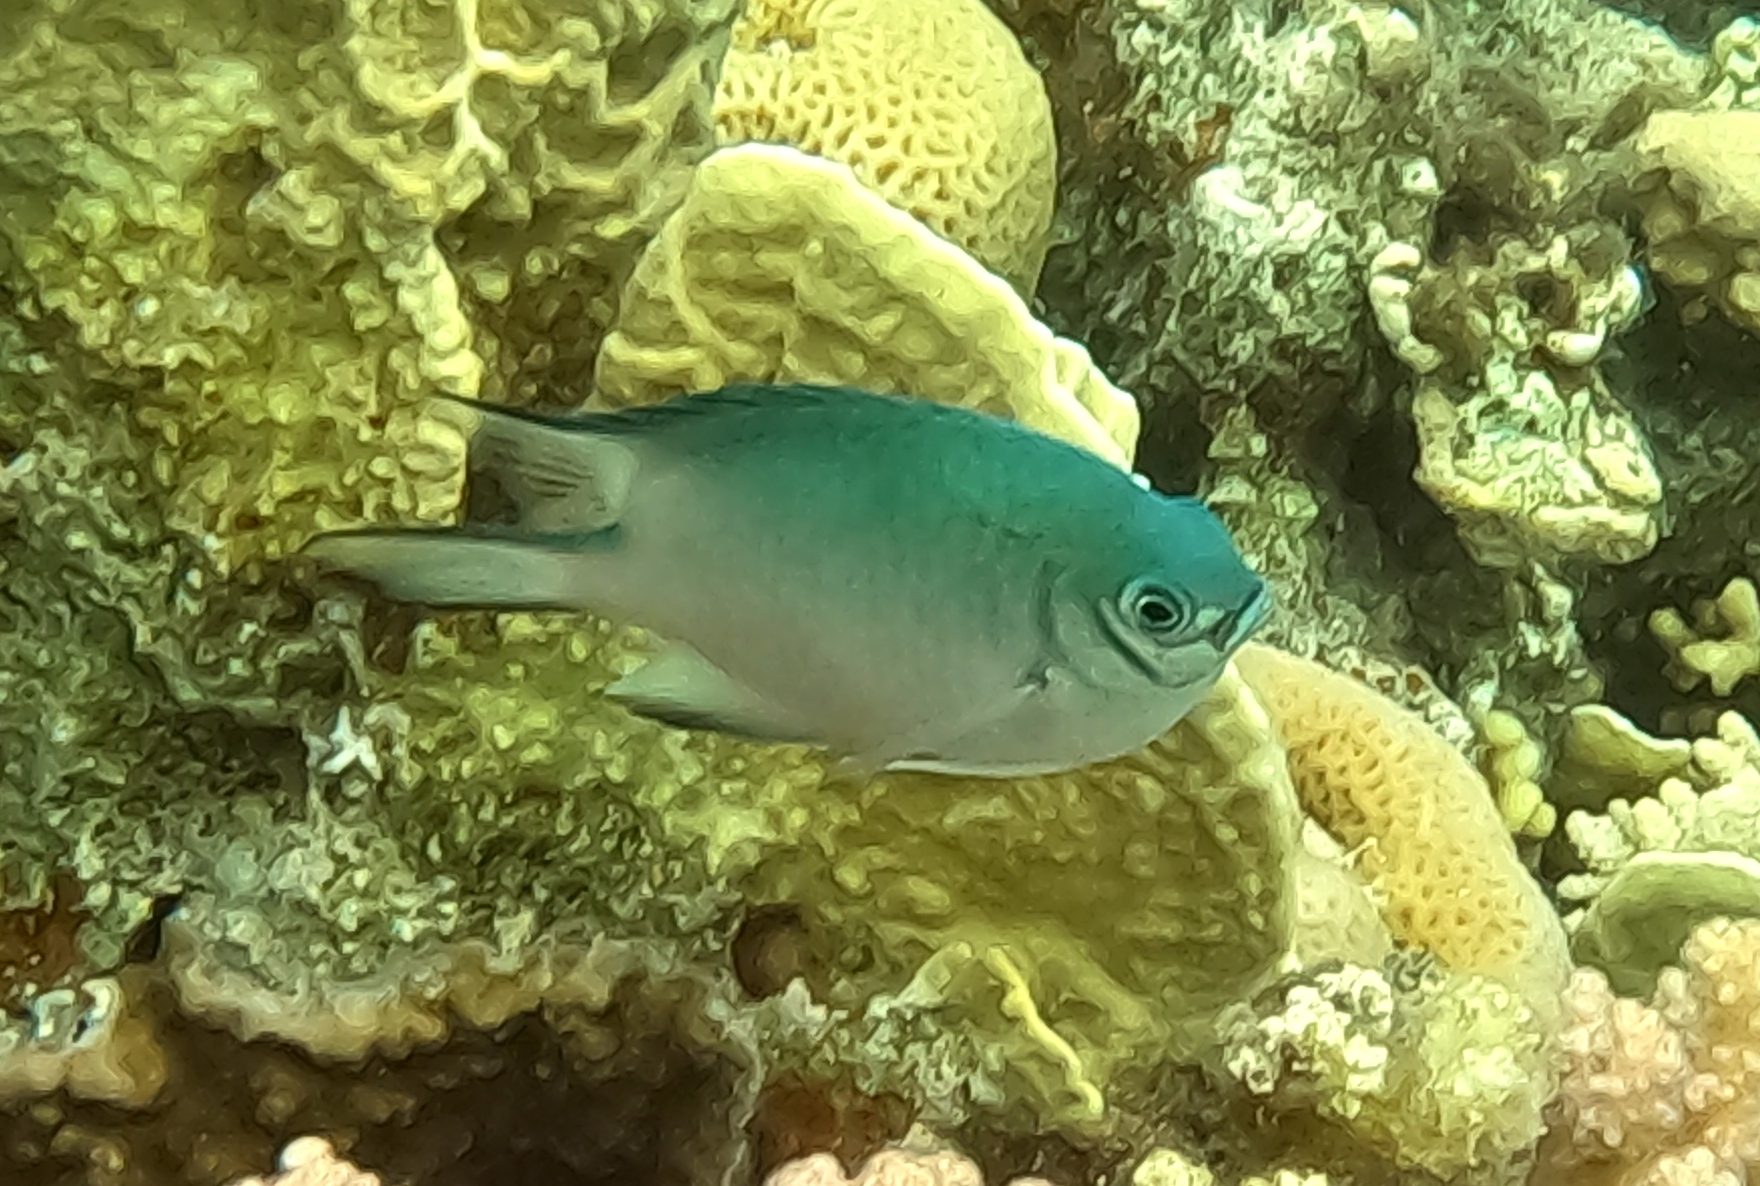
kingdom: Animalia
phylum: Chordata
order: Perciformes
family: Pomacentridae
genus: Amblyglyphidodon
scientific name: Amblyglyphidodon indicus
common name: Maldives damselfish
